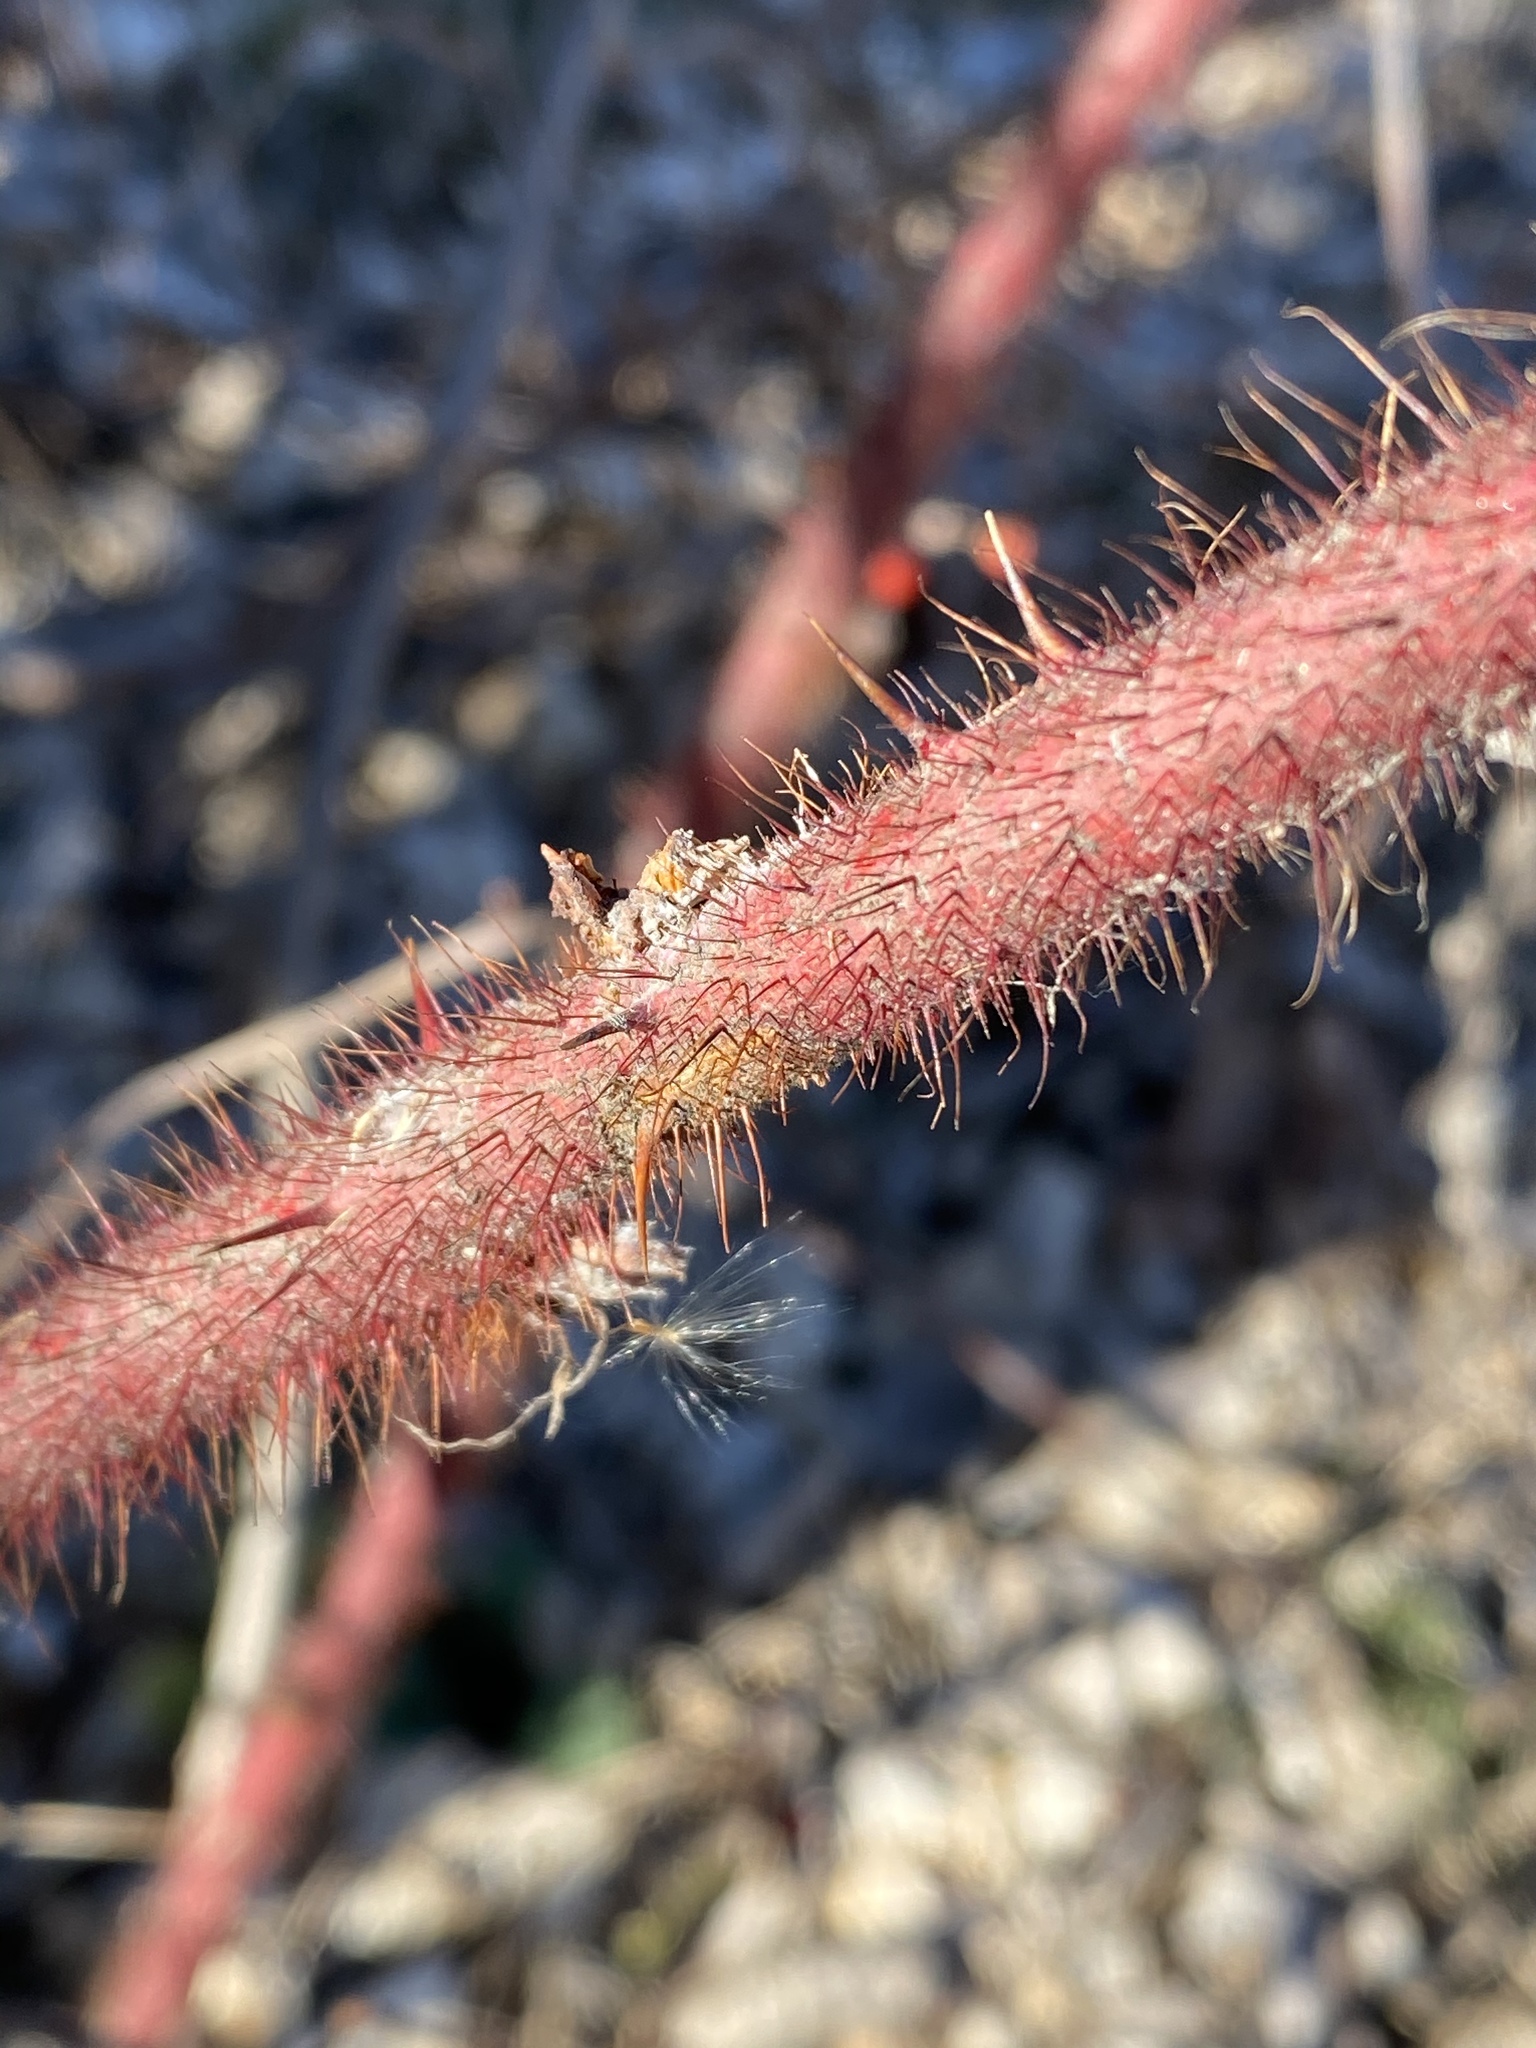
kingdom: Plantae
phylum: Tracheophyta
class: Magnoliopsida
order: Rosales
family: Rosaceae
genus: Rubus
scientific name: Rubus phoenicolasius
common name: Japanese wineberry
